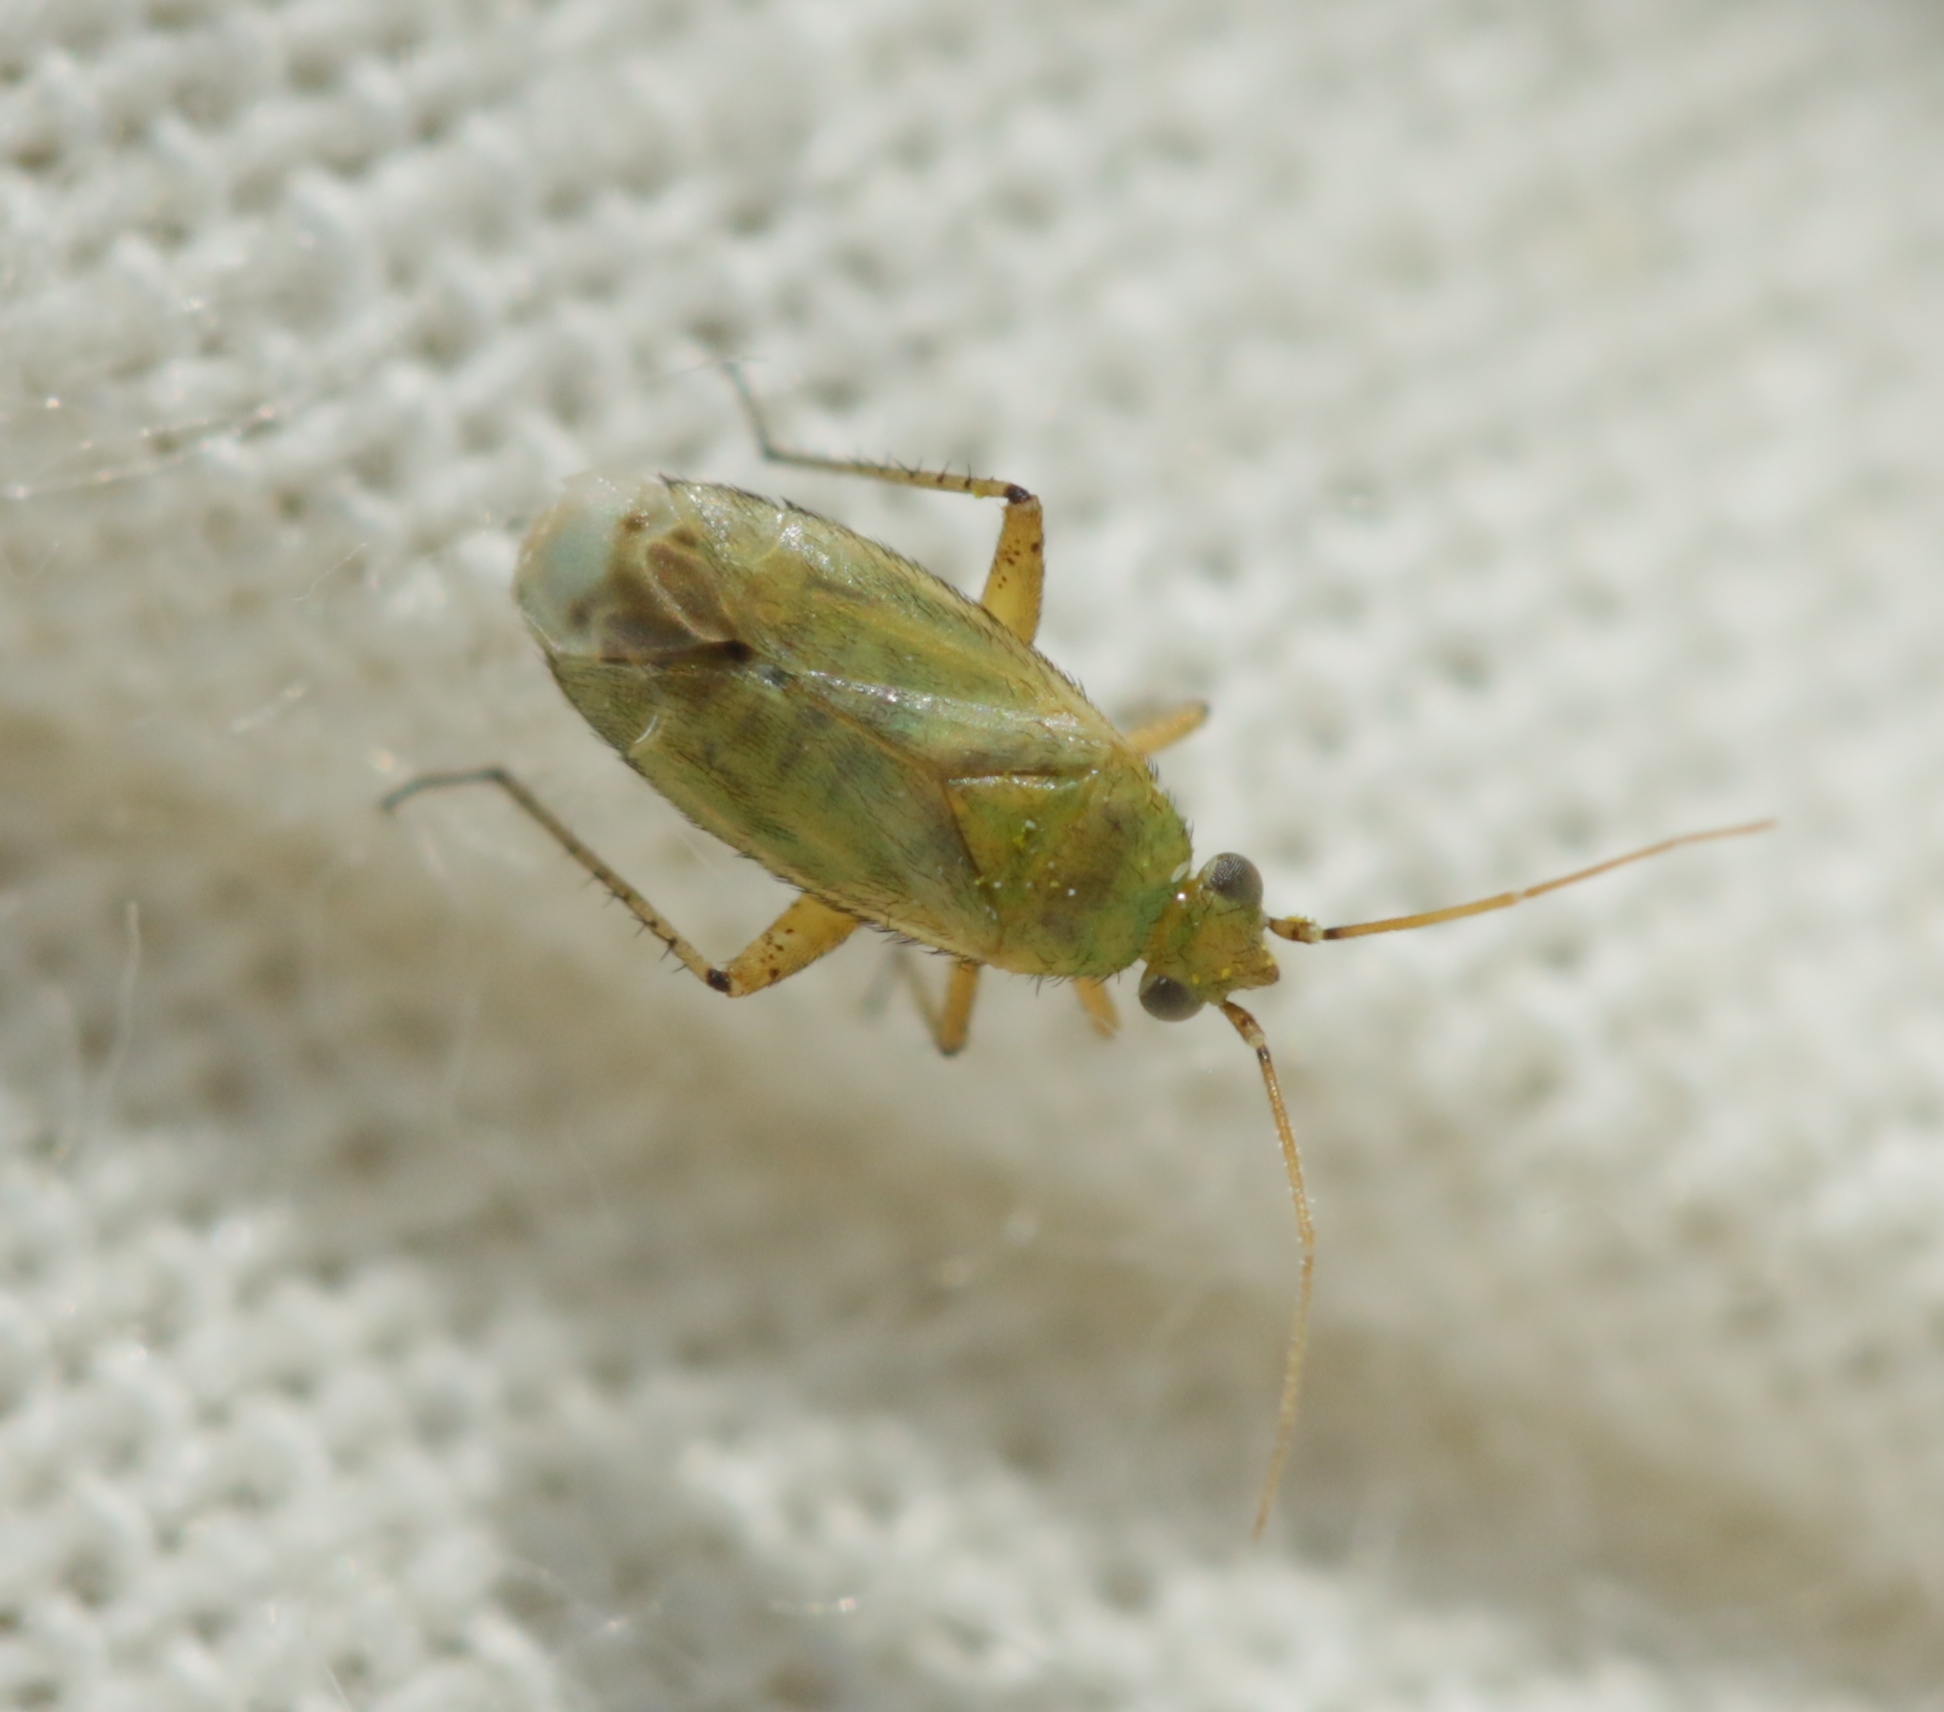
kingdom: Animalia
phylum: Arthropoda
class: Insecta
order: Hemiptera
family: Miridae
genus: Plagiognathus
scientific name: Plagiognathus chrysanthemi
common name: Plant bug
